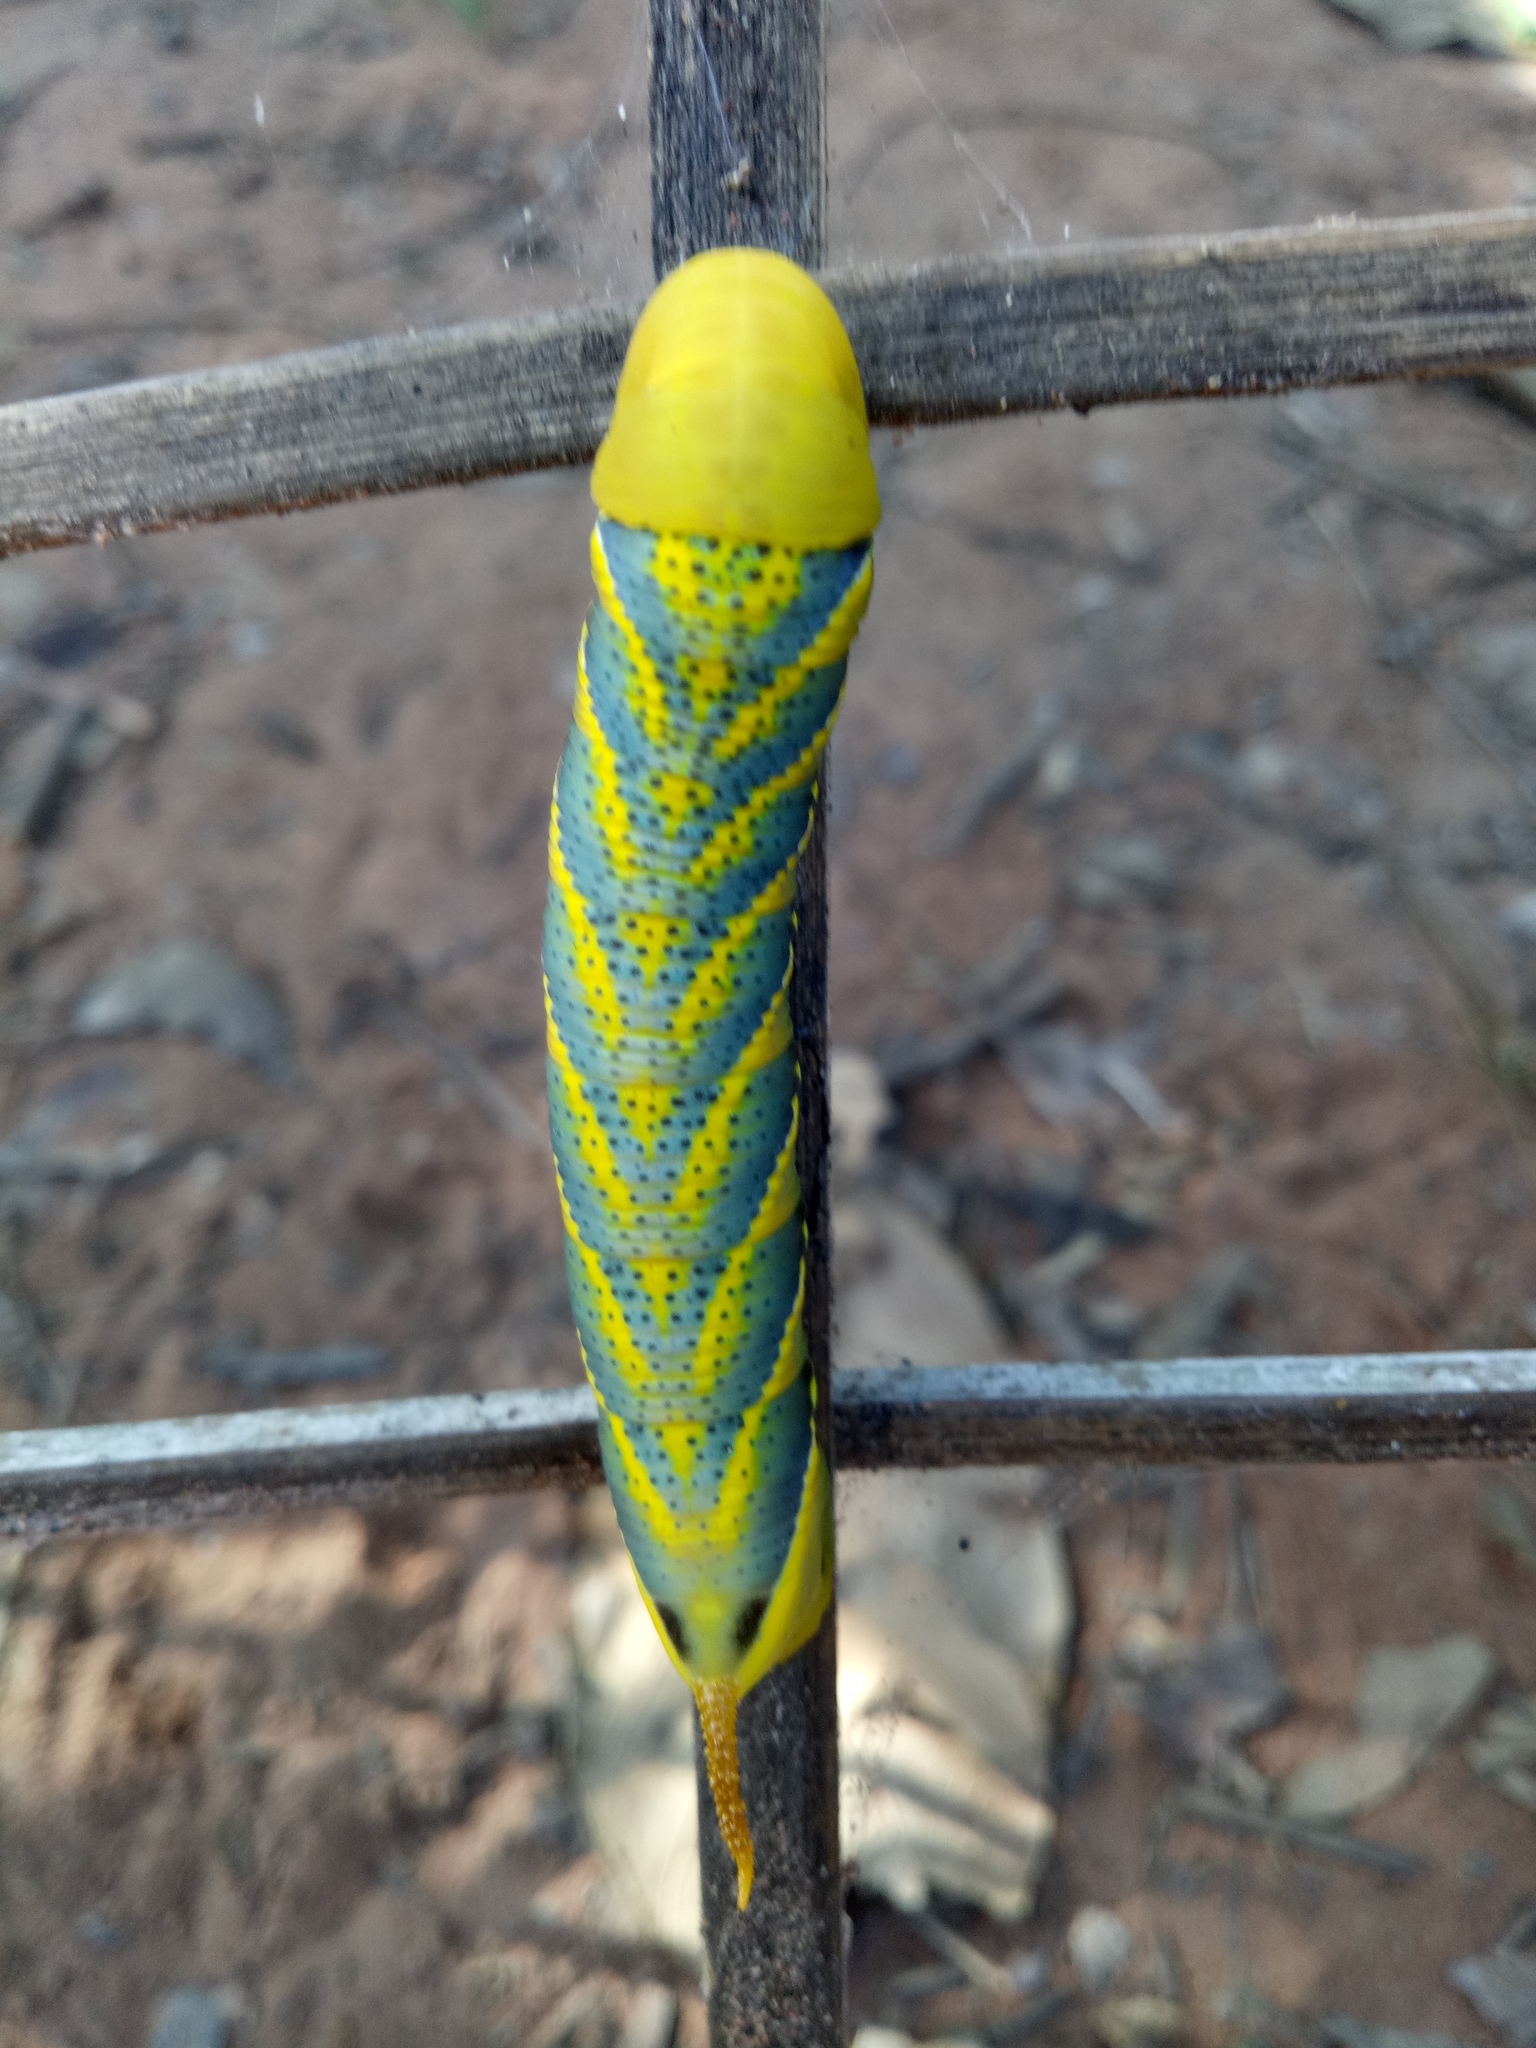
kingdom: Animalia
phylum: Arthropoda
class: Insecta
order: Lepidoptera
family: Sphingidae
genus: Acherontia
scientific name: Acherontia styx
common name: Death's-head hawk moth
